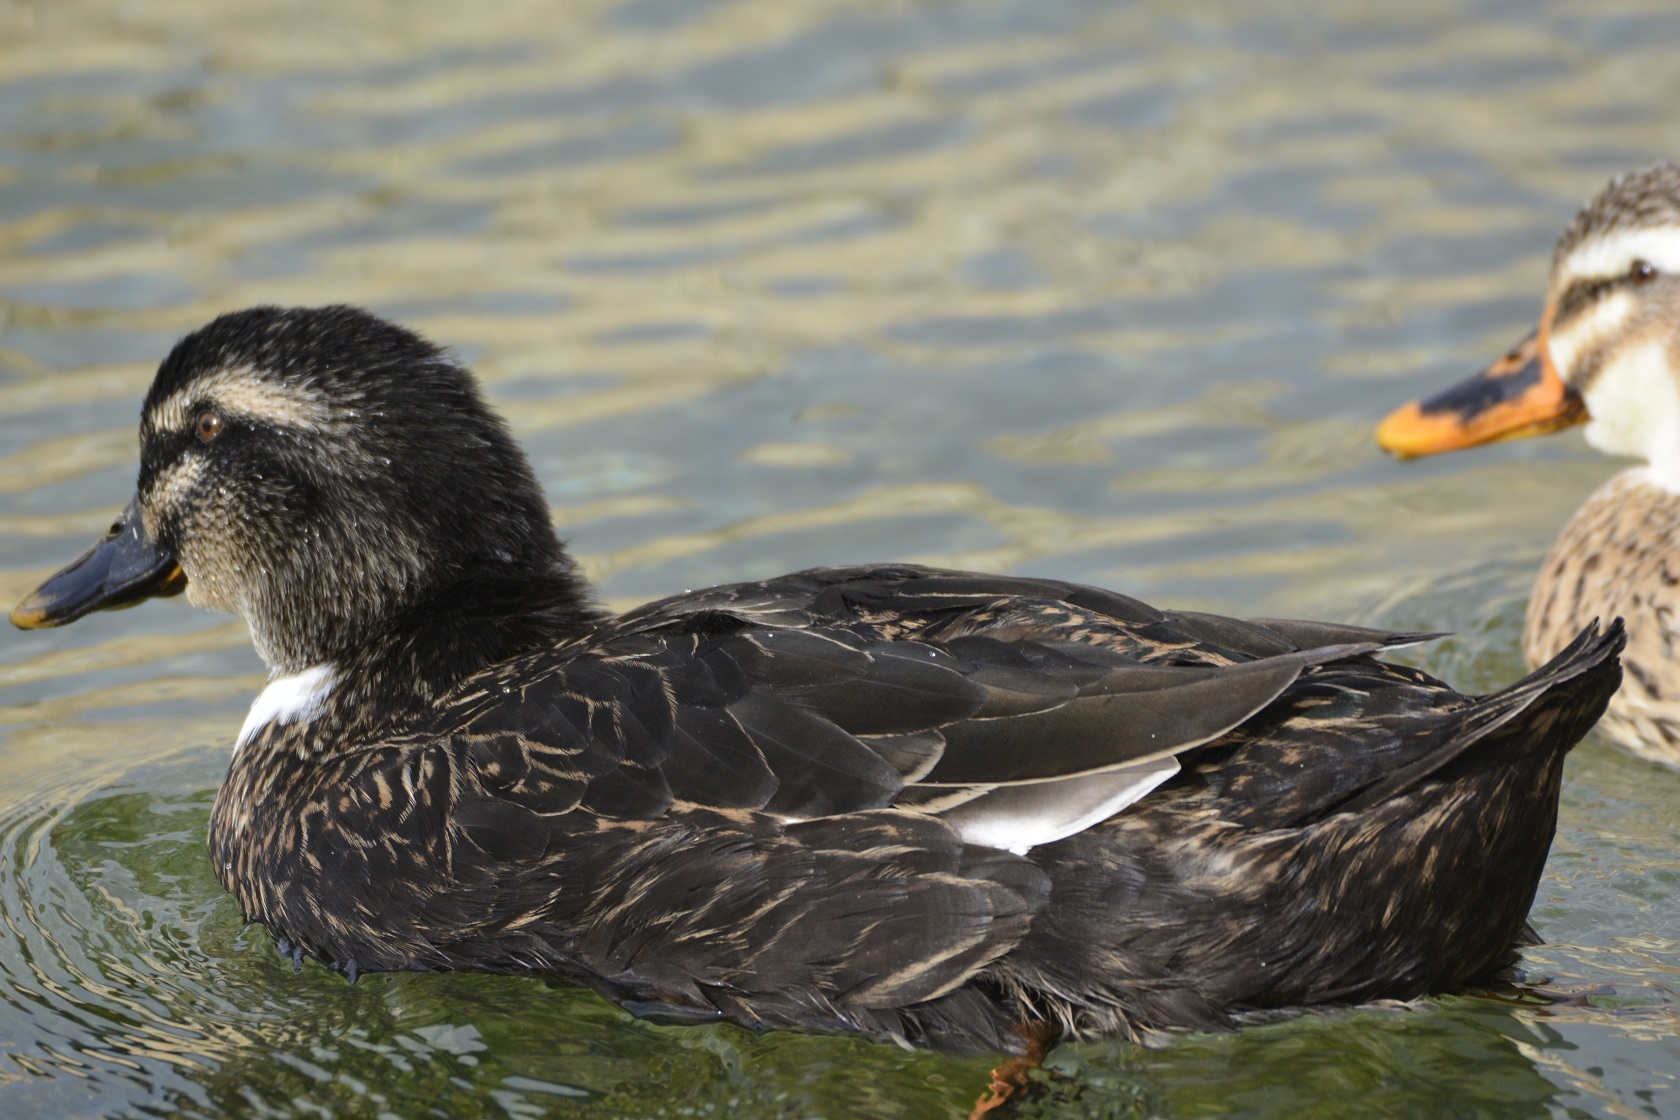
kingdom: Animalia
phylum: Chordata
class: Aves
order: Anseriformes
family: Anatidae
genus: Anas
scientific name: Anas platyrhynchos
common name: Mallard
